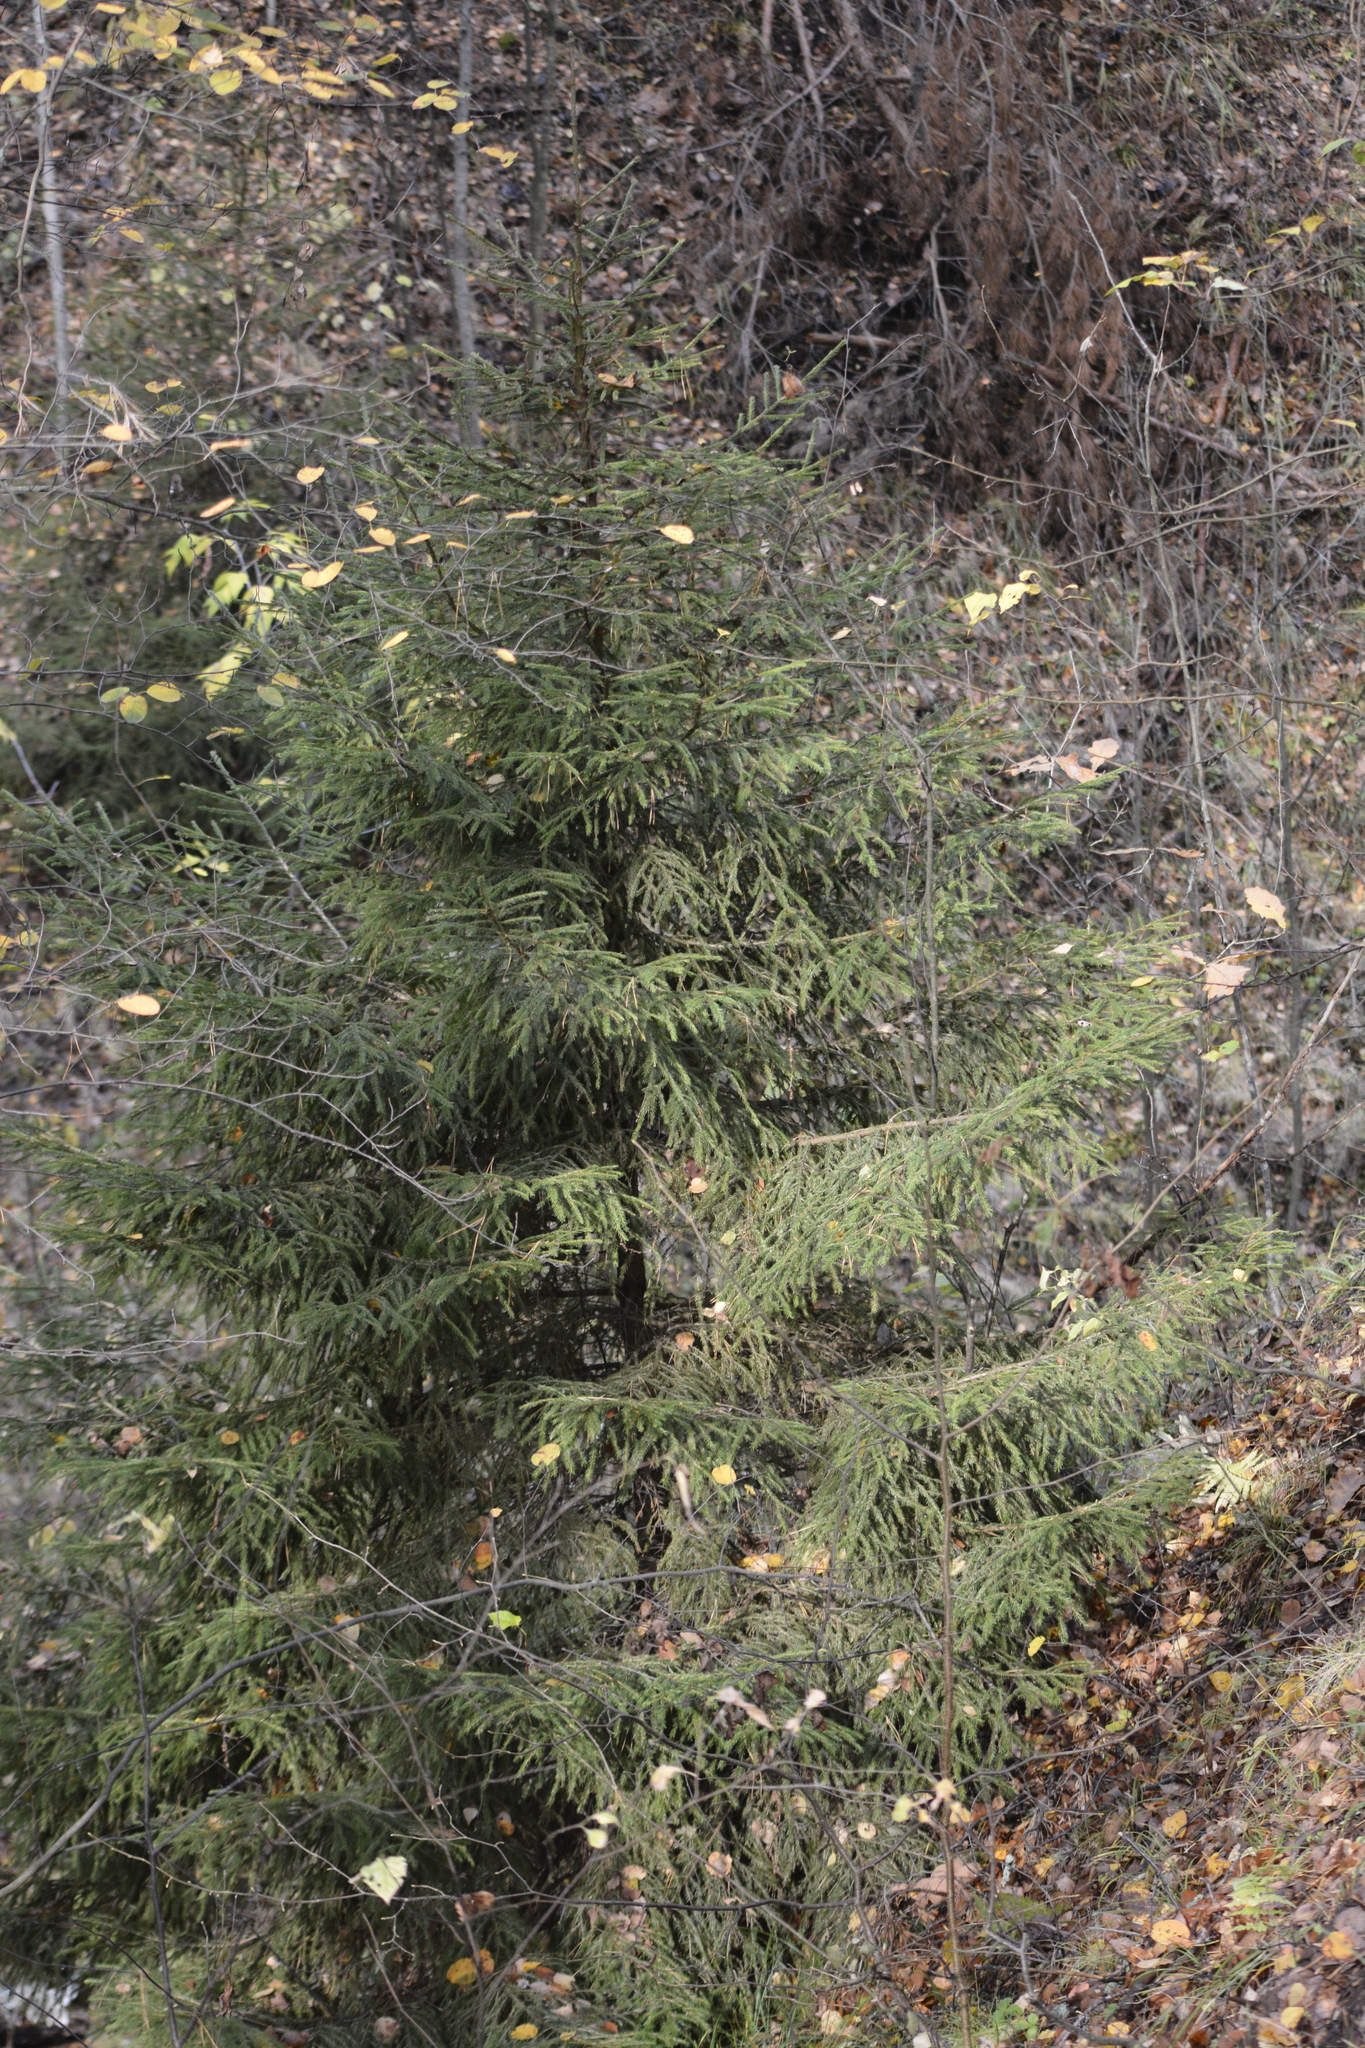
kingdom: Plantae
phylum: Tracheophyta
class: Pinopsida
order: Pinales
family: Pinaceae
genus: Picea
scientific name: Picea abies
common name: Norway spruce
